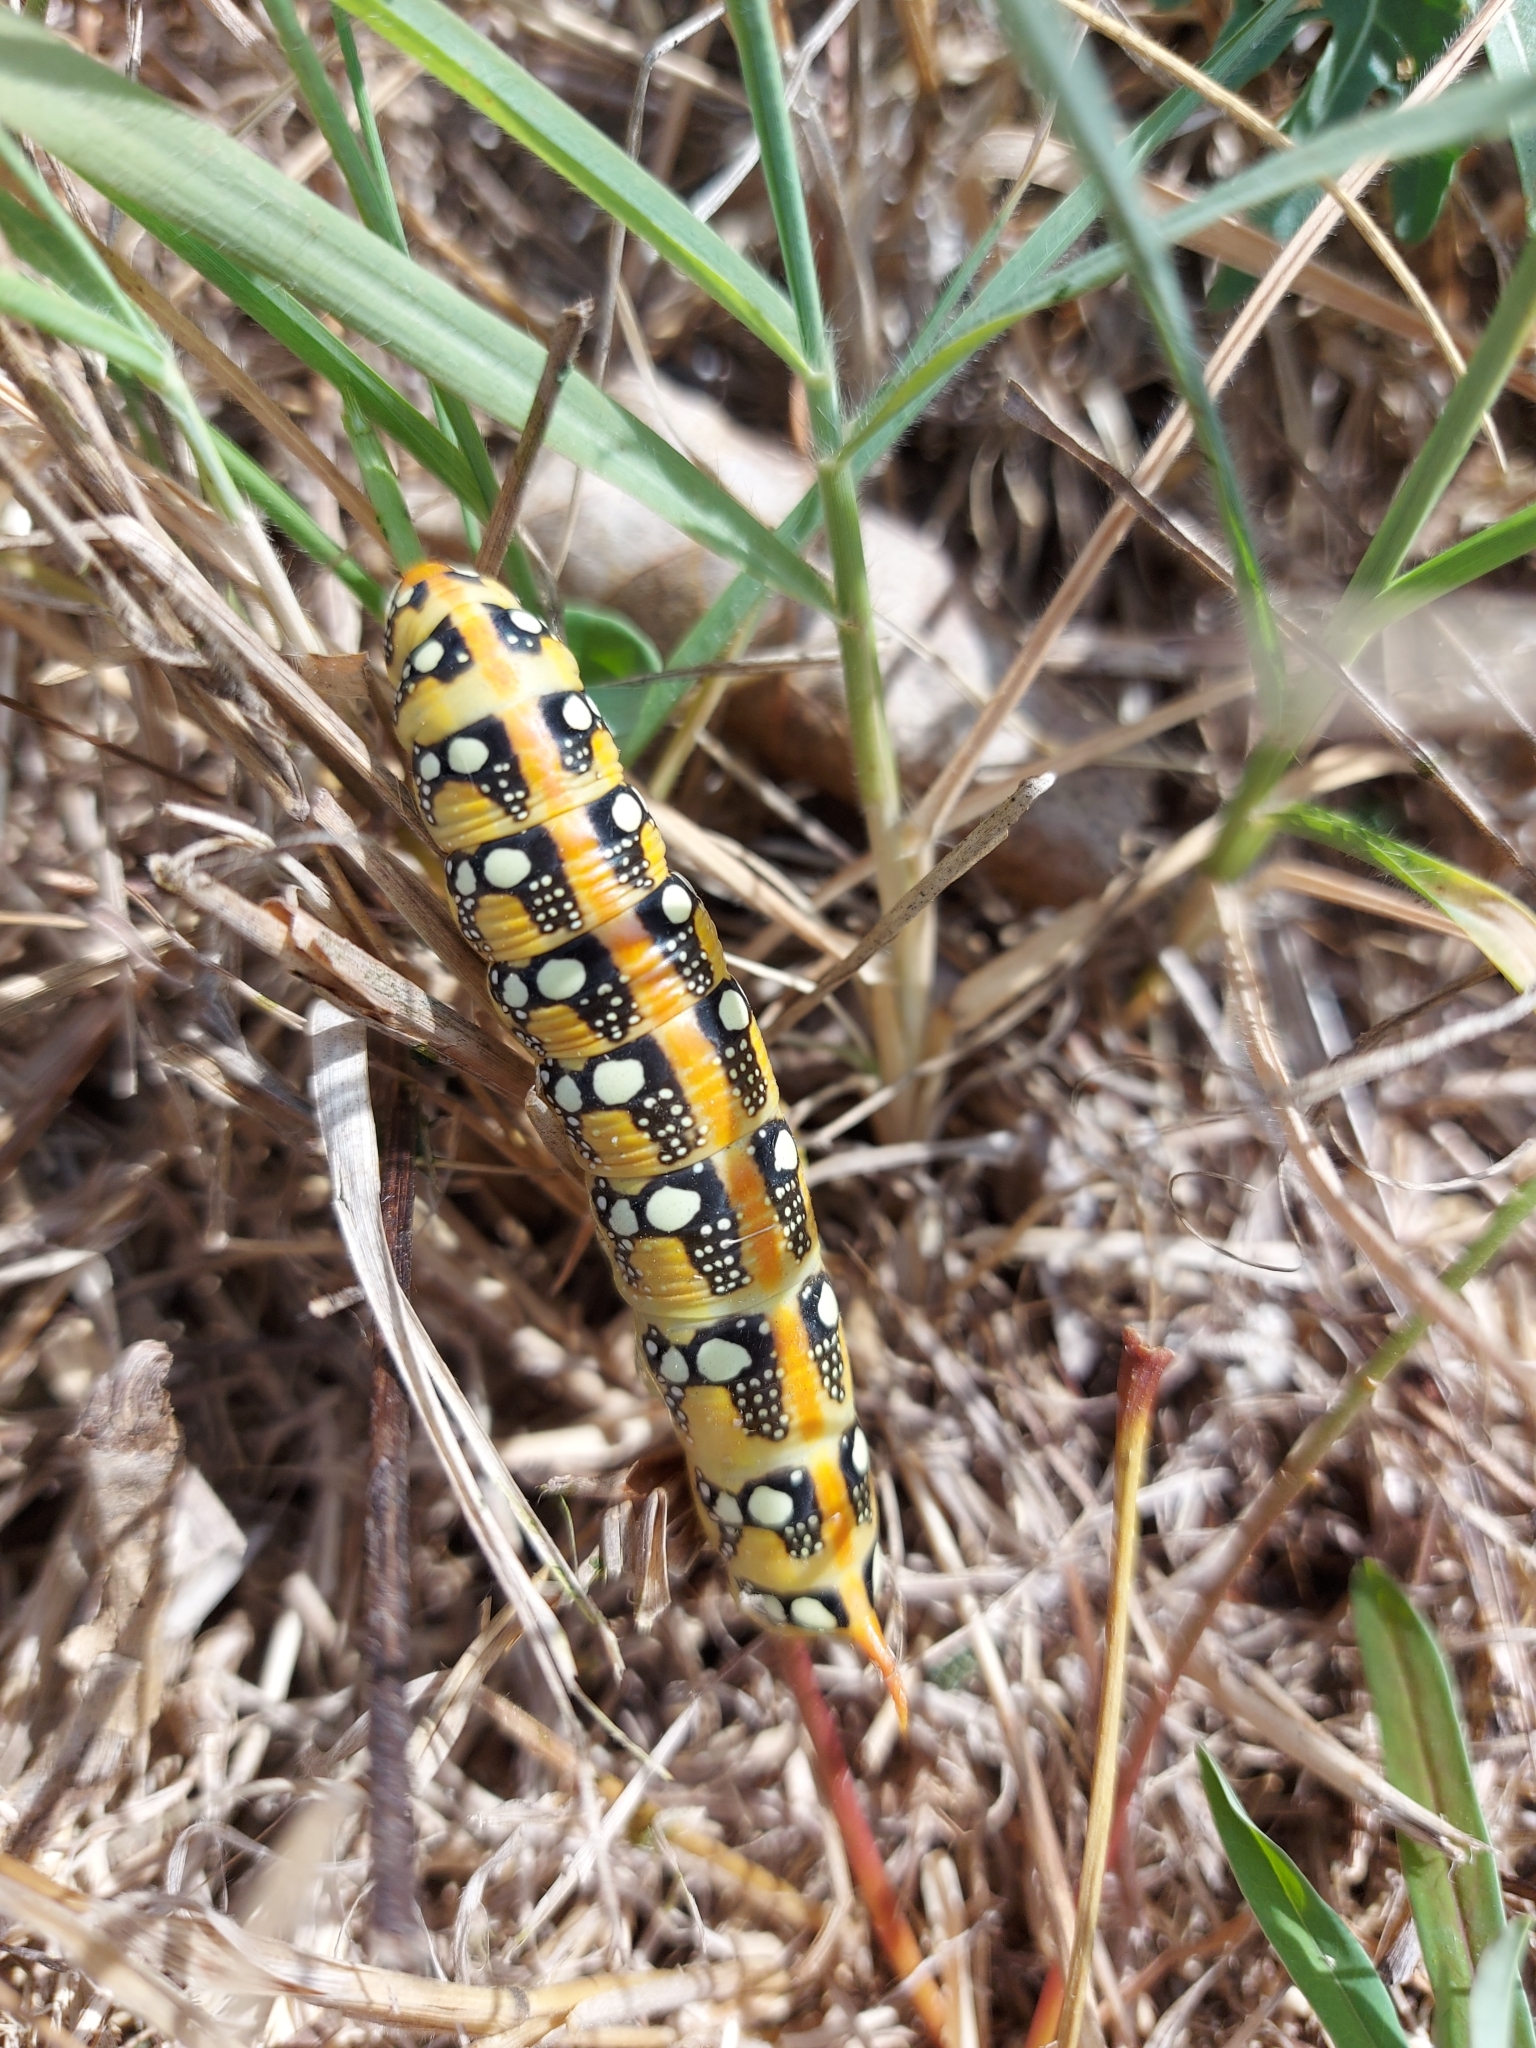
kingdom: Animalia
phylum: Arthropoda
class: Insecta
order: Lepidoptera
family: Sphingidae
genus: Hyles
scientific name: Hyles euphorbiae
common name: Spurge hawk-moth
